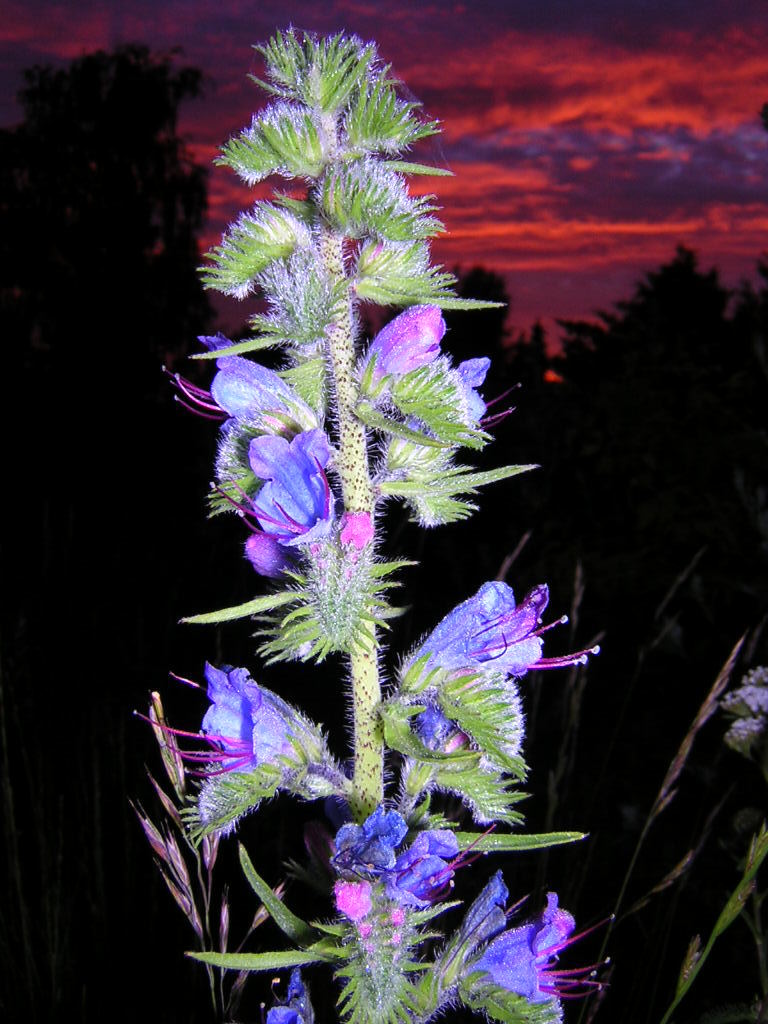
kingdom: Plantae
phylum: Tracheophyta
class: Magnoliopsida
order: Boraginales
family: Boraginaceae
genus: Echium
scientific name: Echium vulgare
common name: Common viper's bugloss
